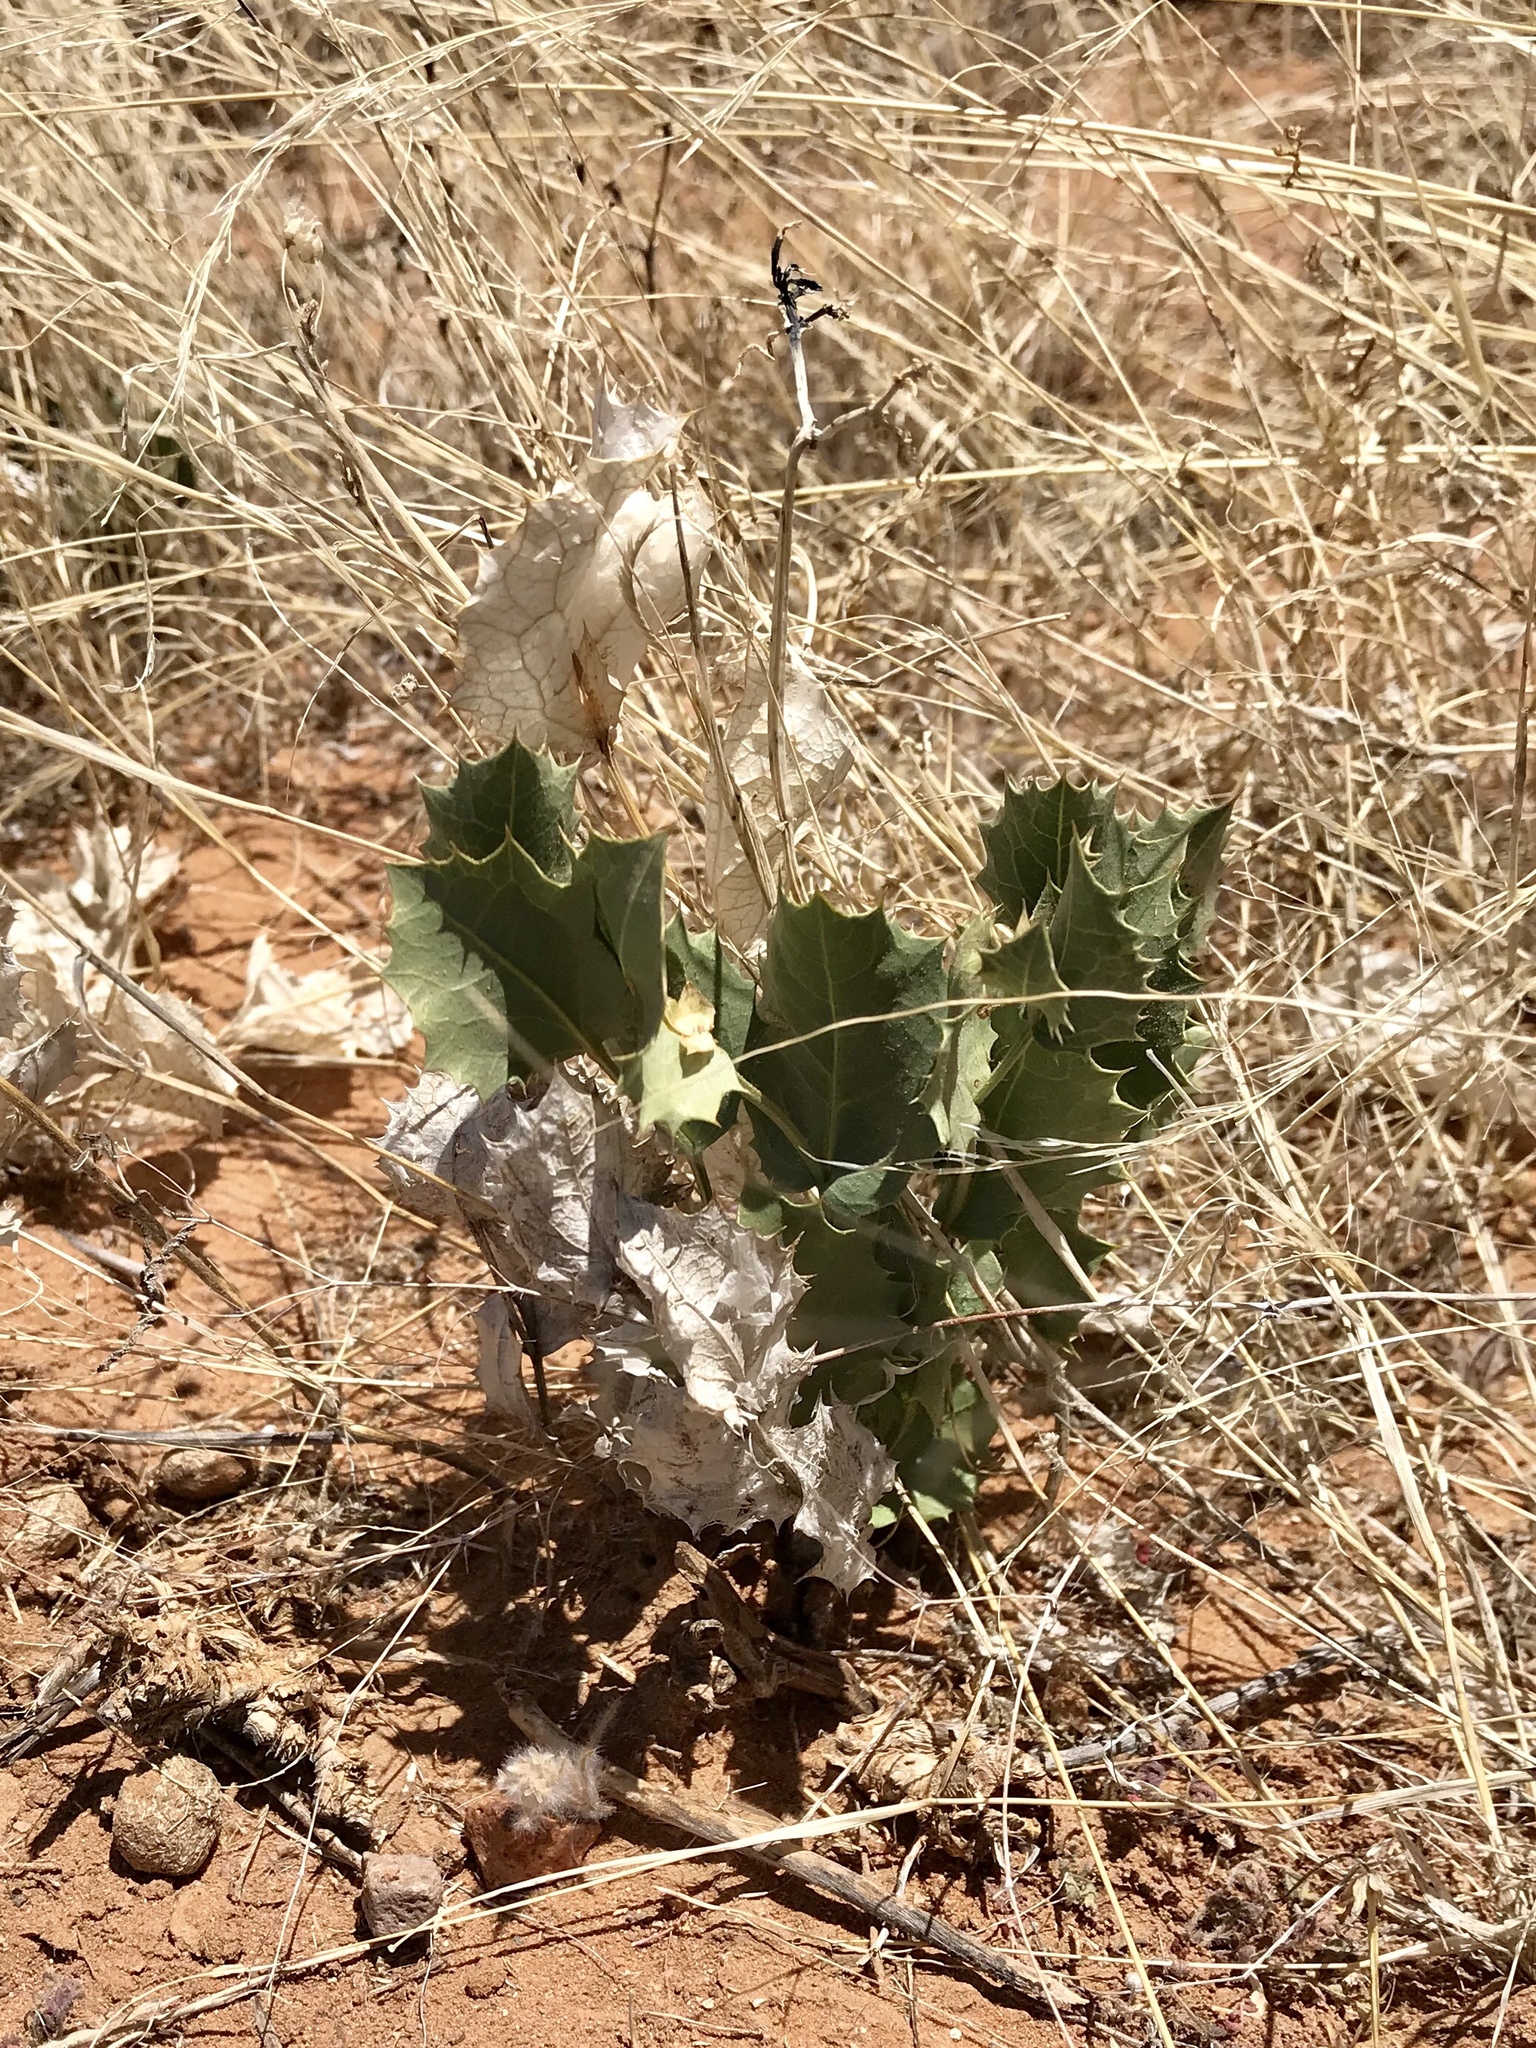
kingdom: Plantae
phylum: Tracheophyta
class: Magnoliopsida
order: Asterales
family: Asteraceae
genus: Acourtia
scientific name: Acourtia nana
